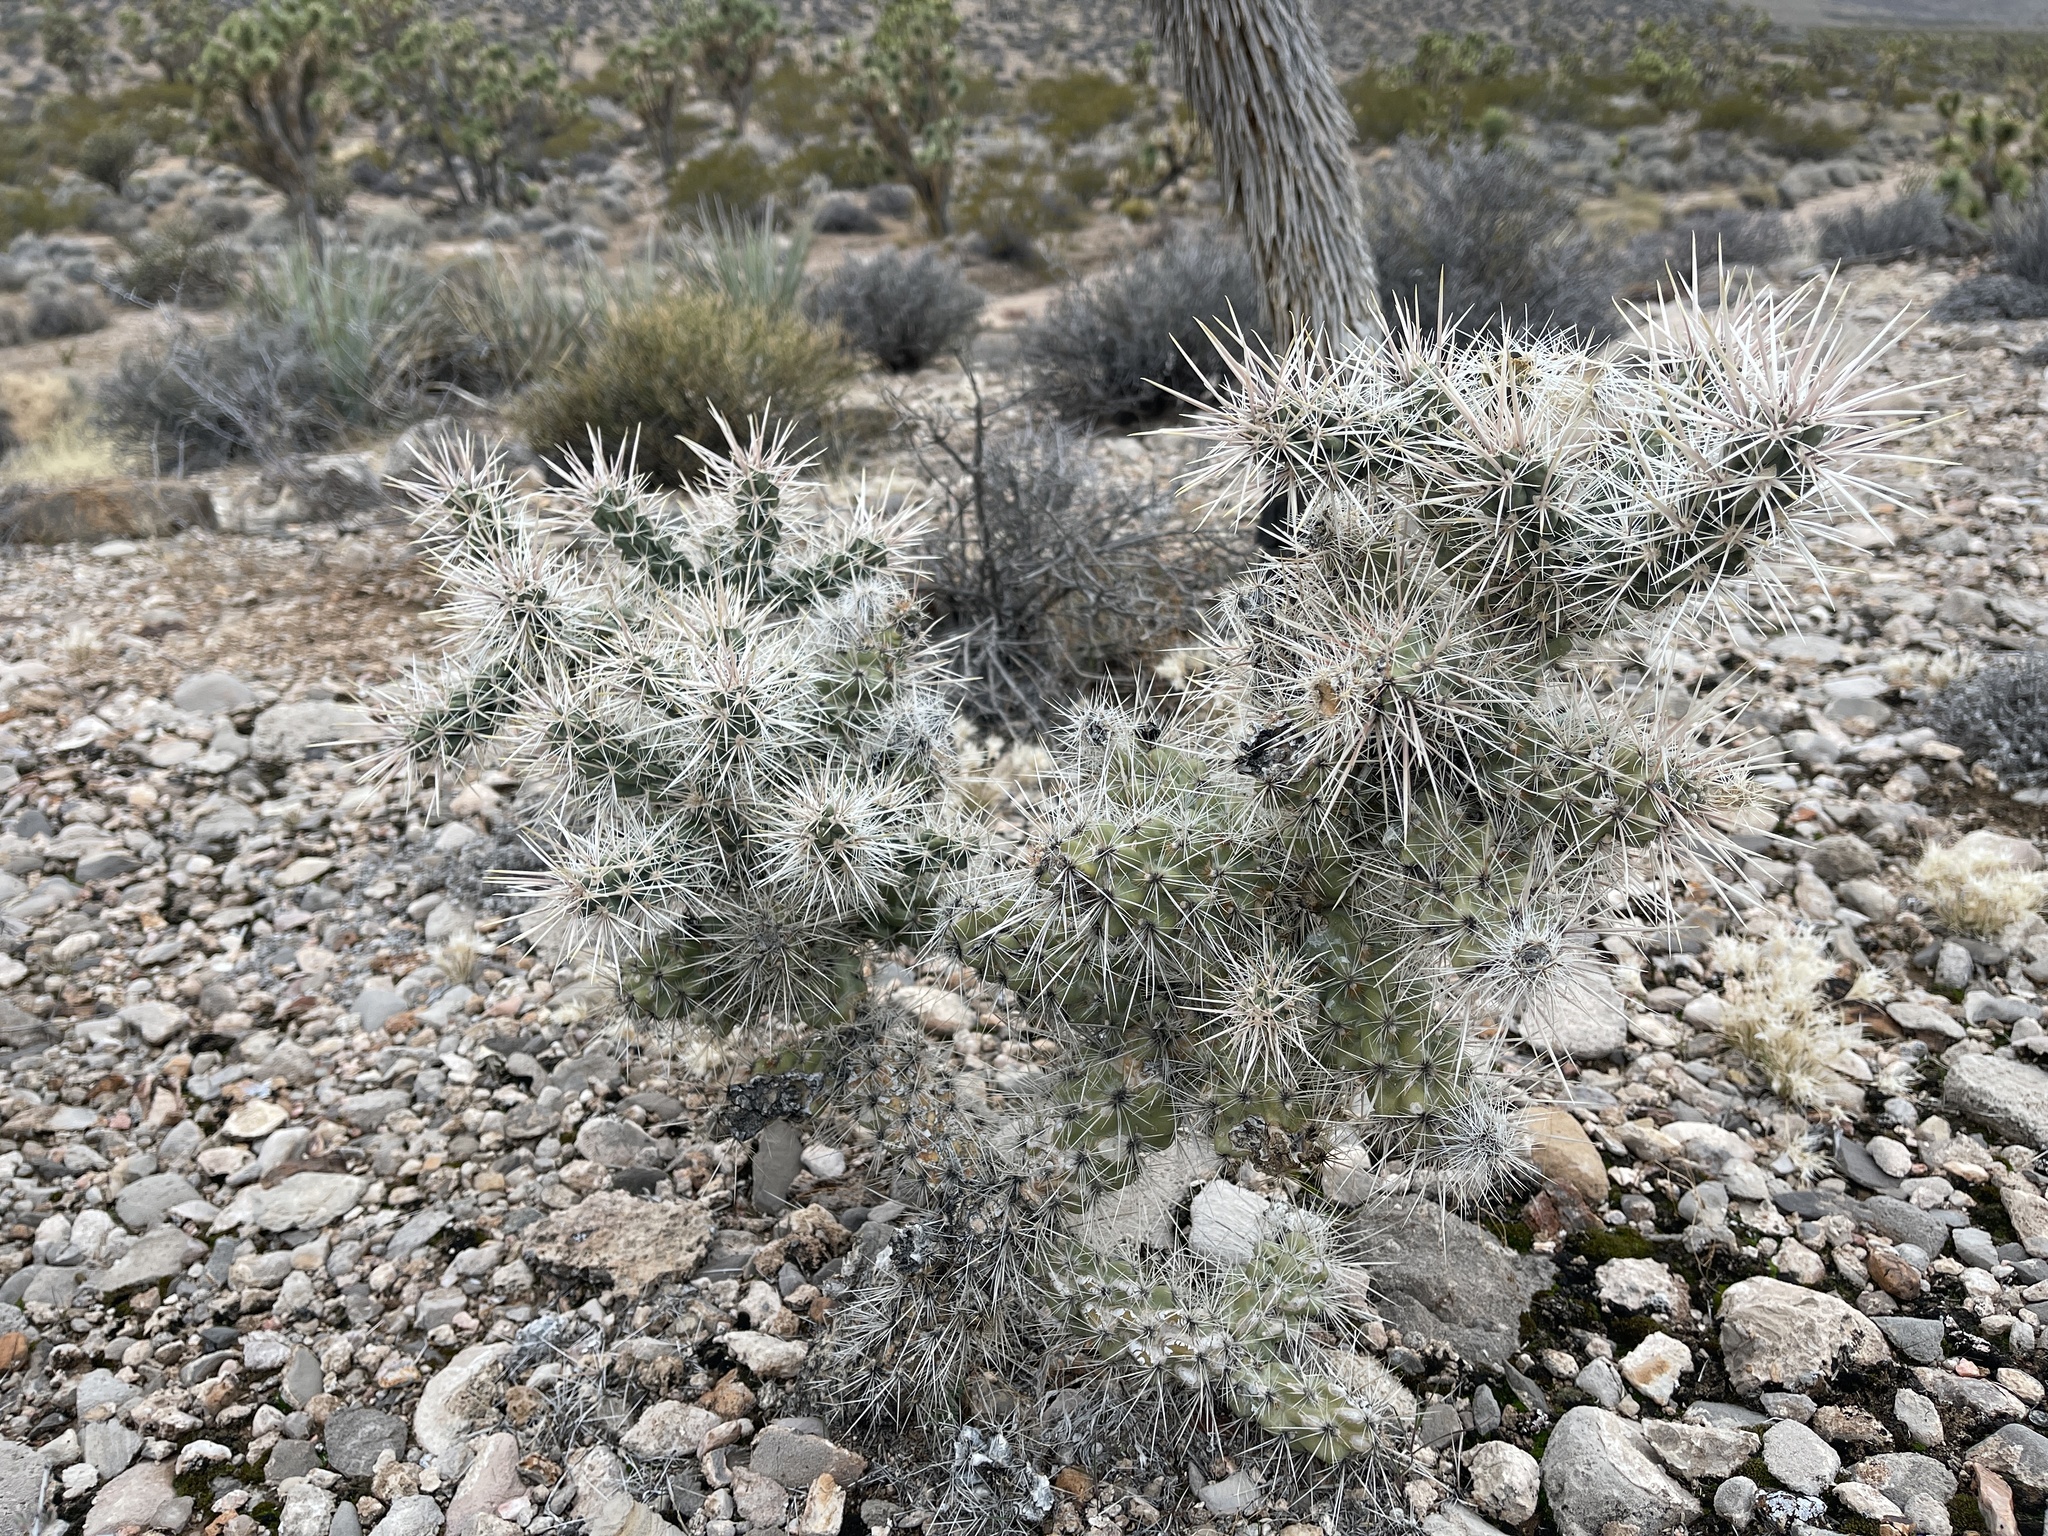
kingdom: Plantae
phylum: Tracheophyta
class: Magnoliopsida
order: Caryophyllales
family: Cactaceae
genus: Cylindropuntia
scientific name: Cylindropuntia echinocarpa
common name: Ground cholla
